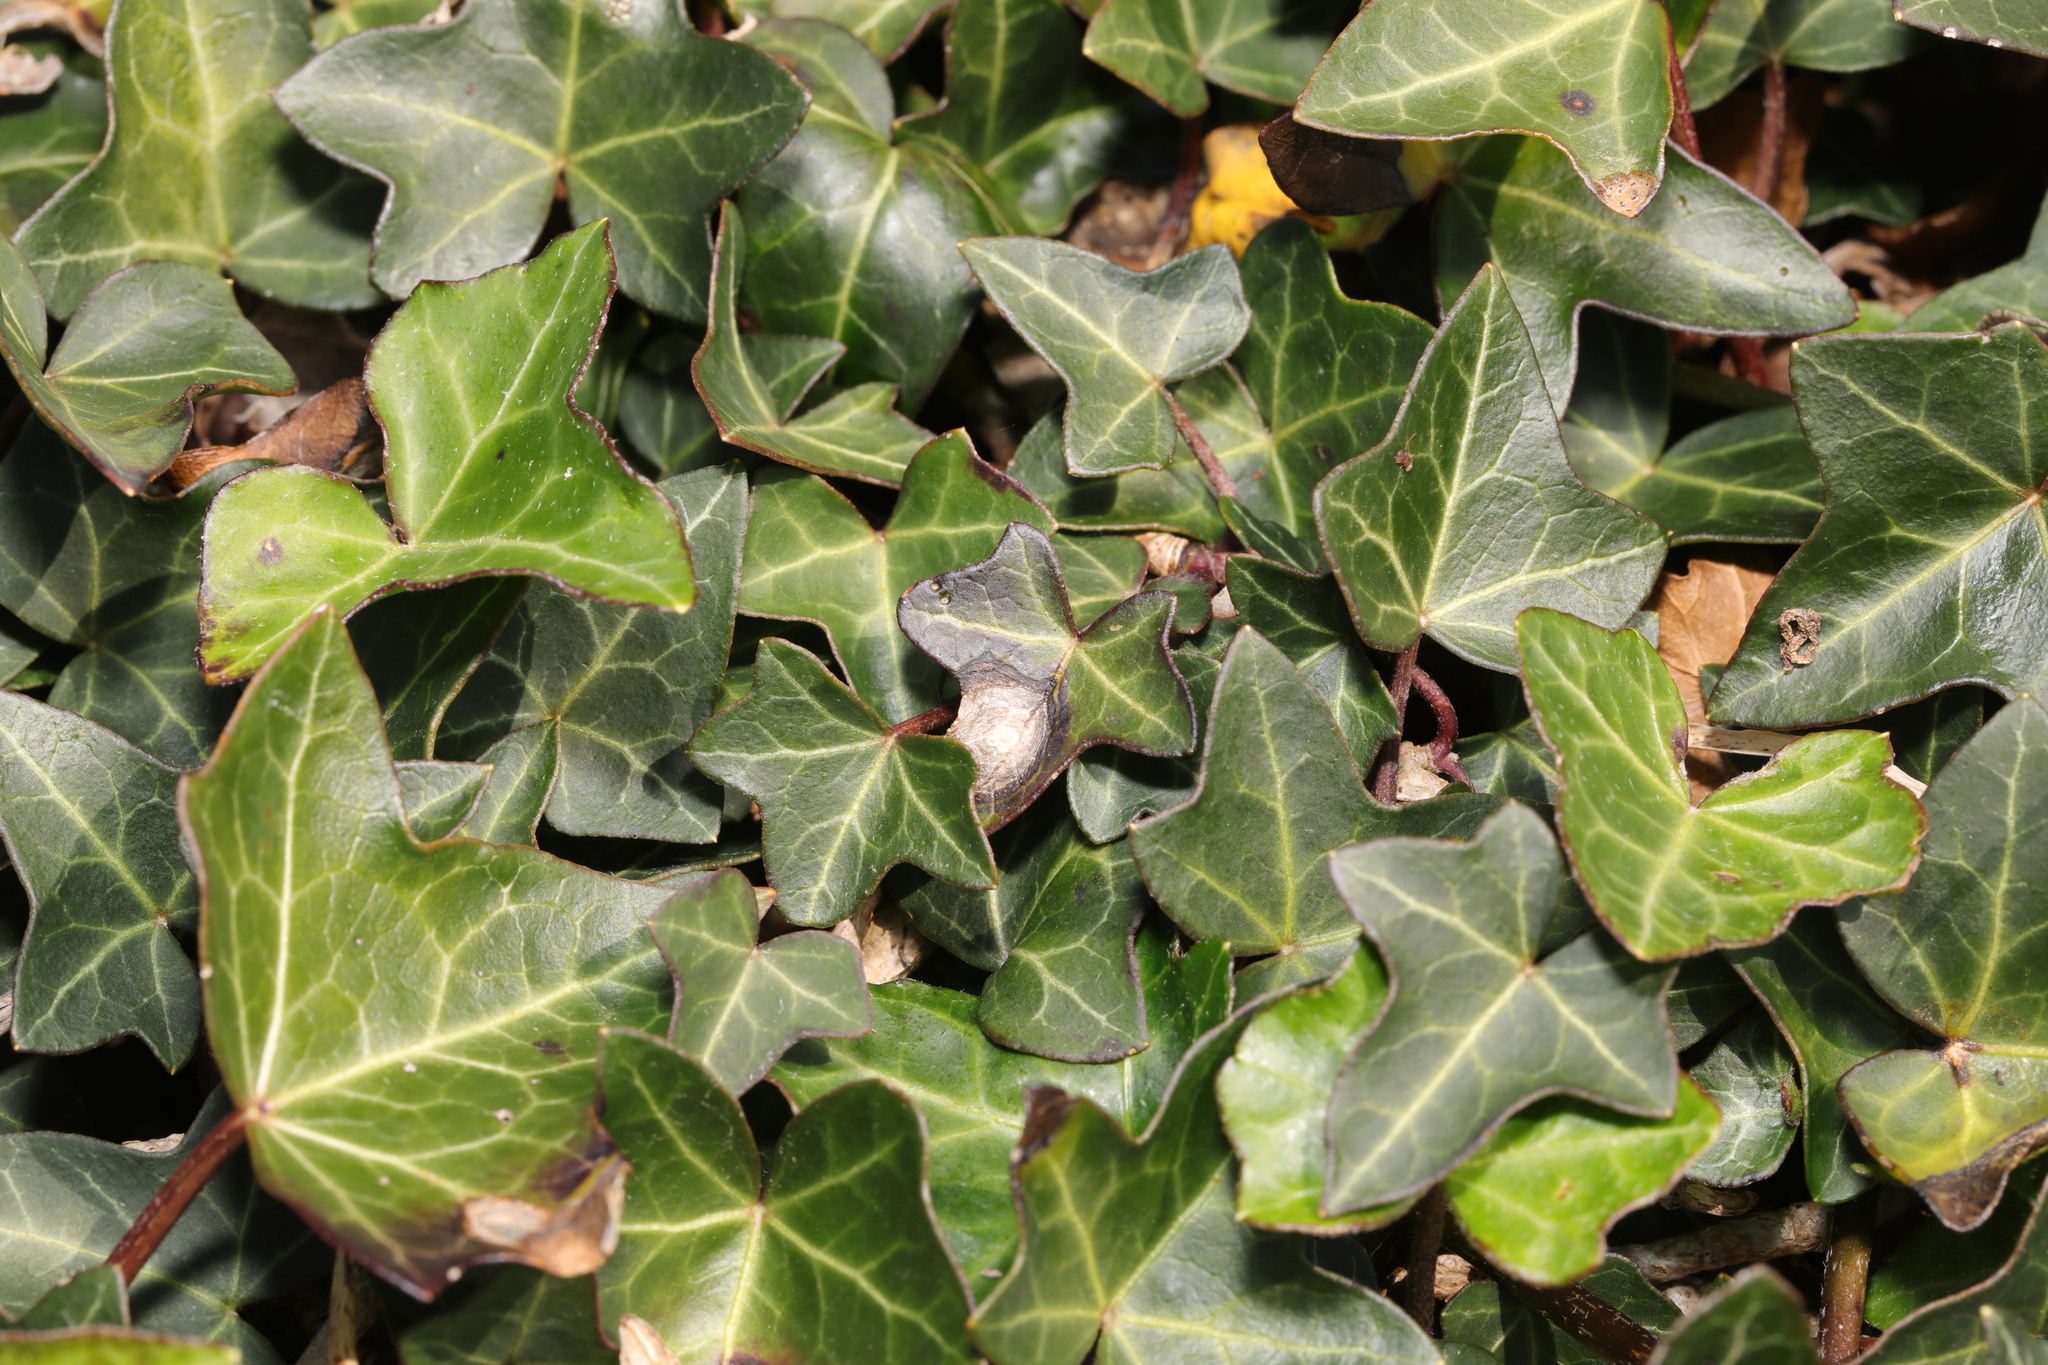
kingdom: Plantae
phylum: Tracheophyta
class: Magnoliopsida
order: Apiales
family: Araliaceae
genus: Hedera
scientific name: Hedera helix
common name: Ivy
